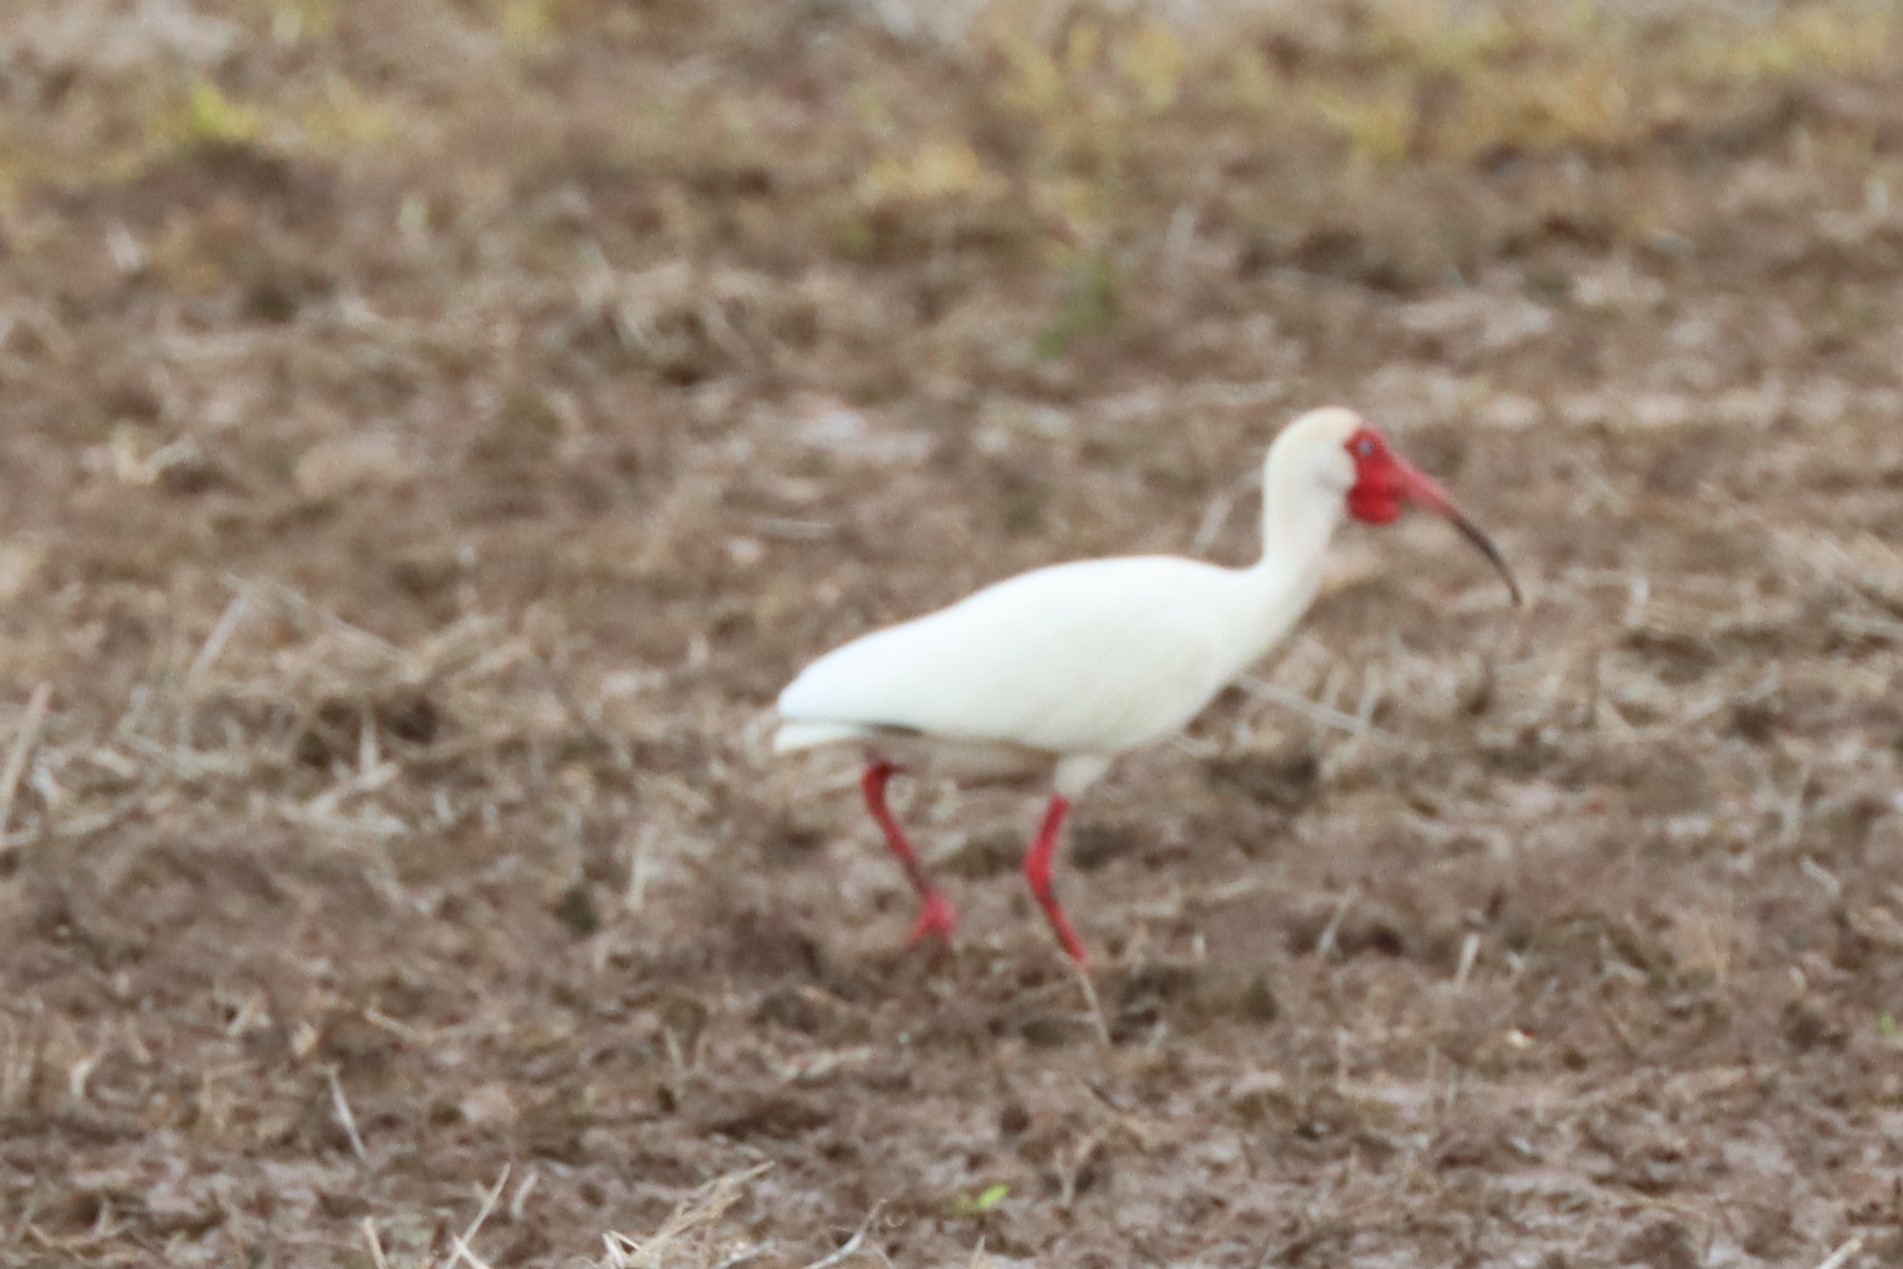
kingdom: Animalia
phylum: Chordata
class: Aves
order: Pelecaniformes
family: Threskiornithidae
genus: Eudocimus
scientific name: Eudocimus albus
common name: White ibis
